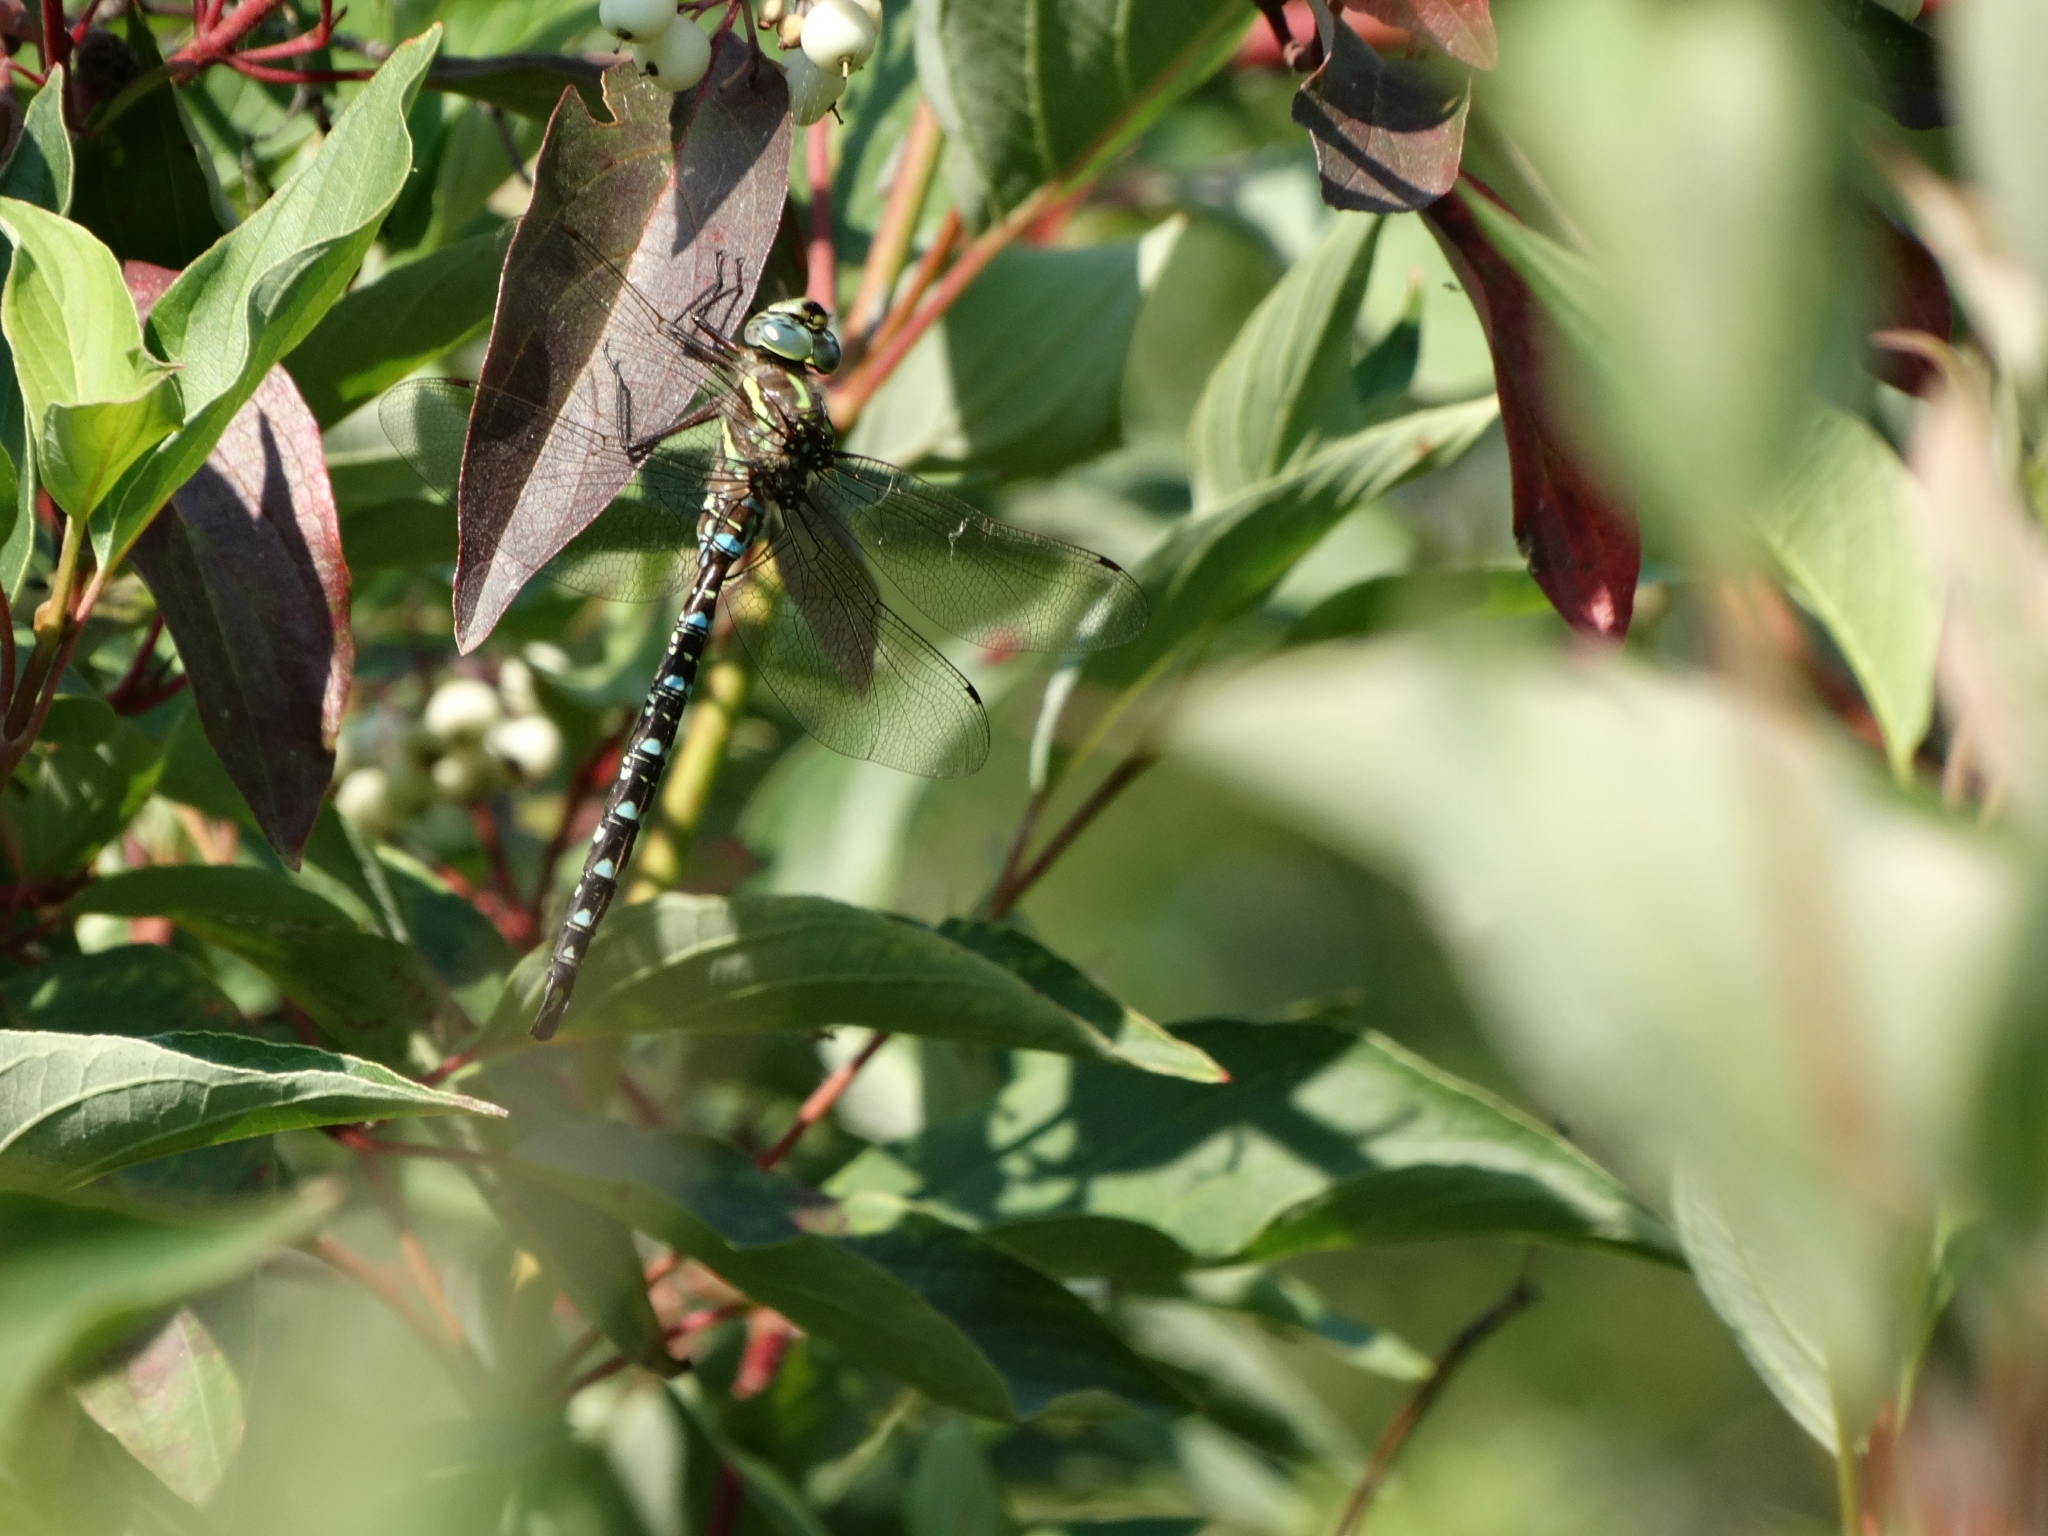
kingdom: Animalia
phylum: Arthropoda
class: Insecta
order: Odonata
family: Aeshnidae
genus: Aeshna
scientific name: Aeshna umbrosa
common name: Shadow darner
